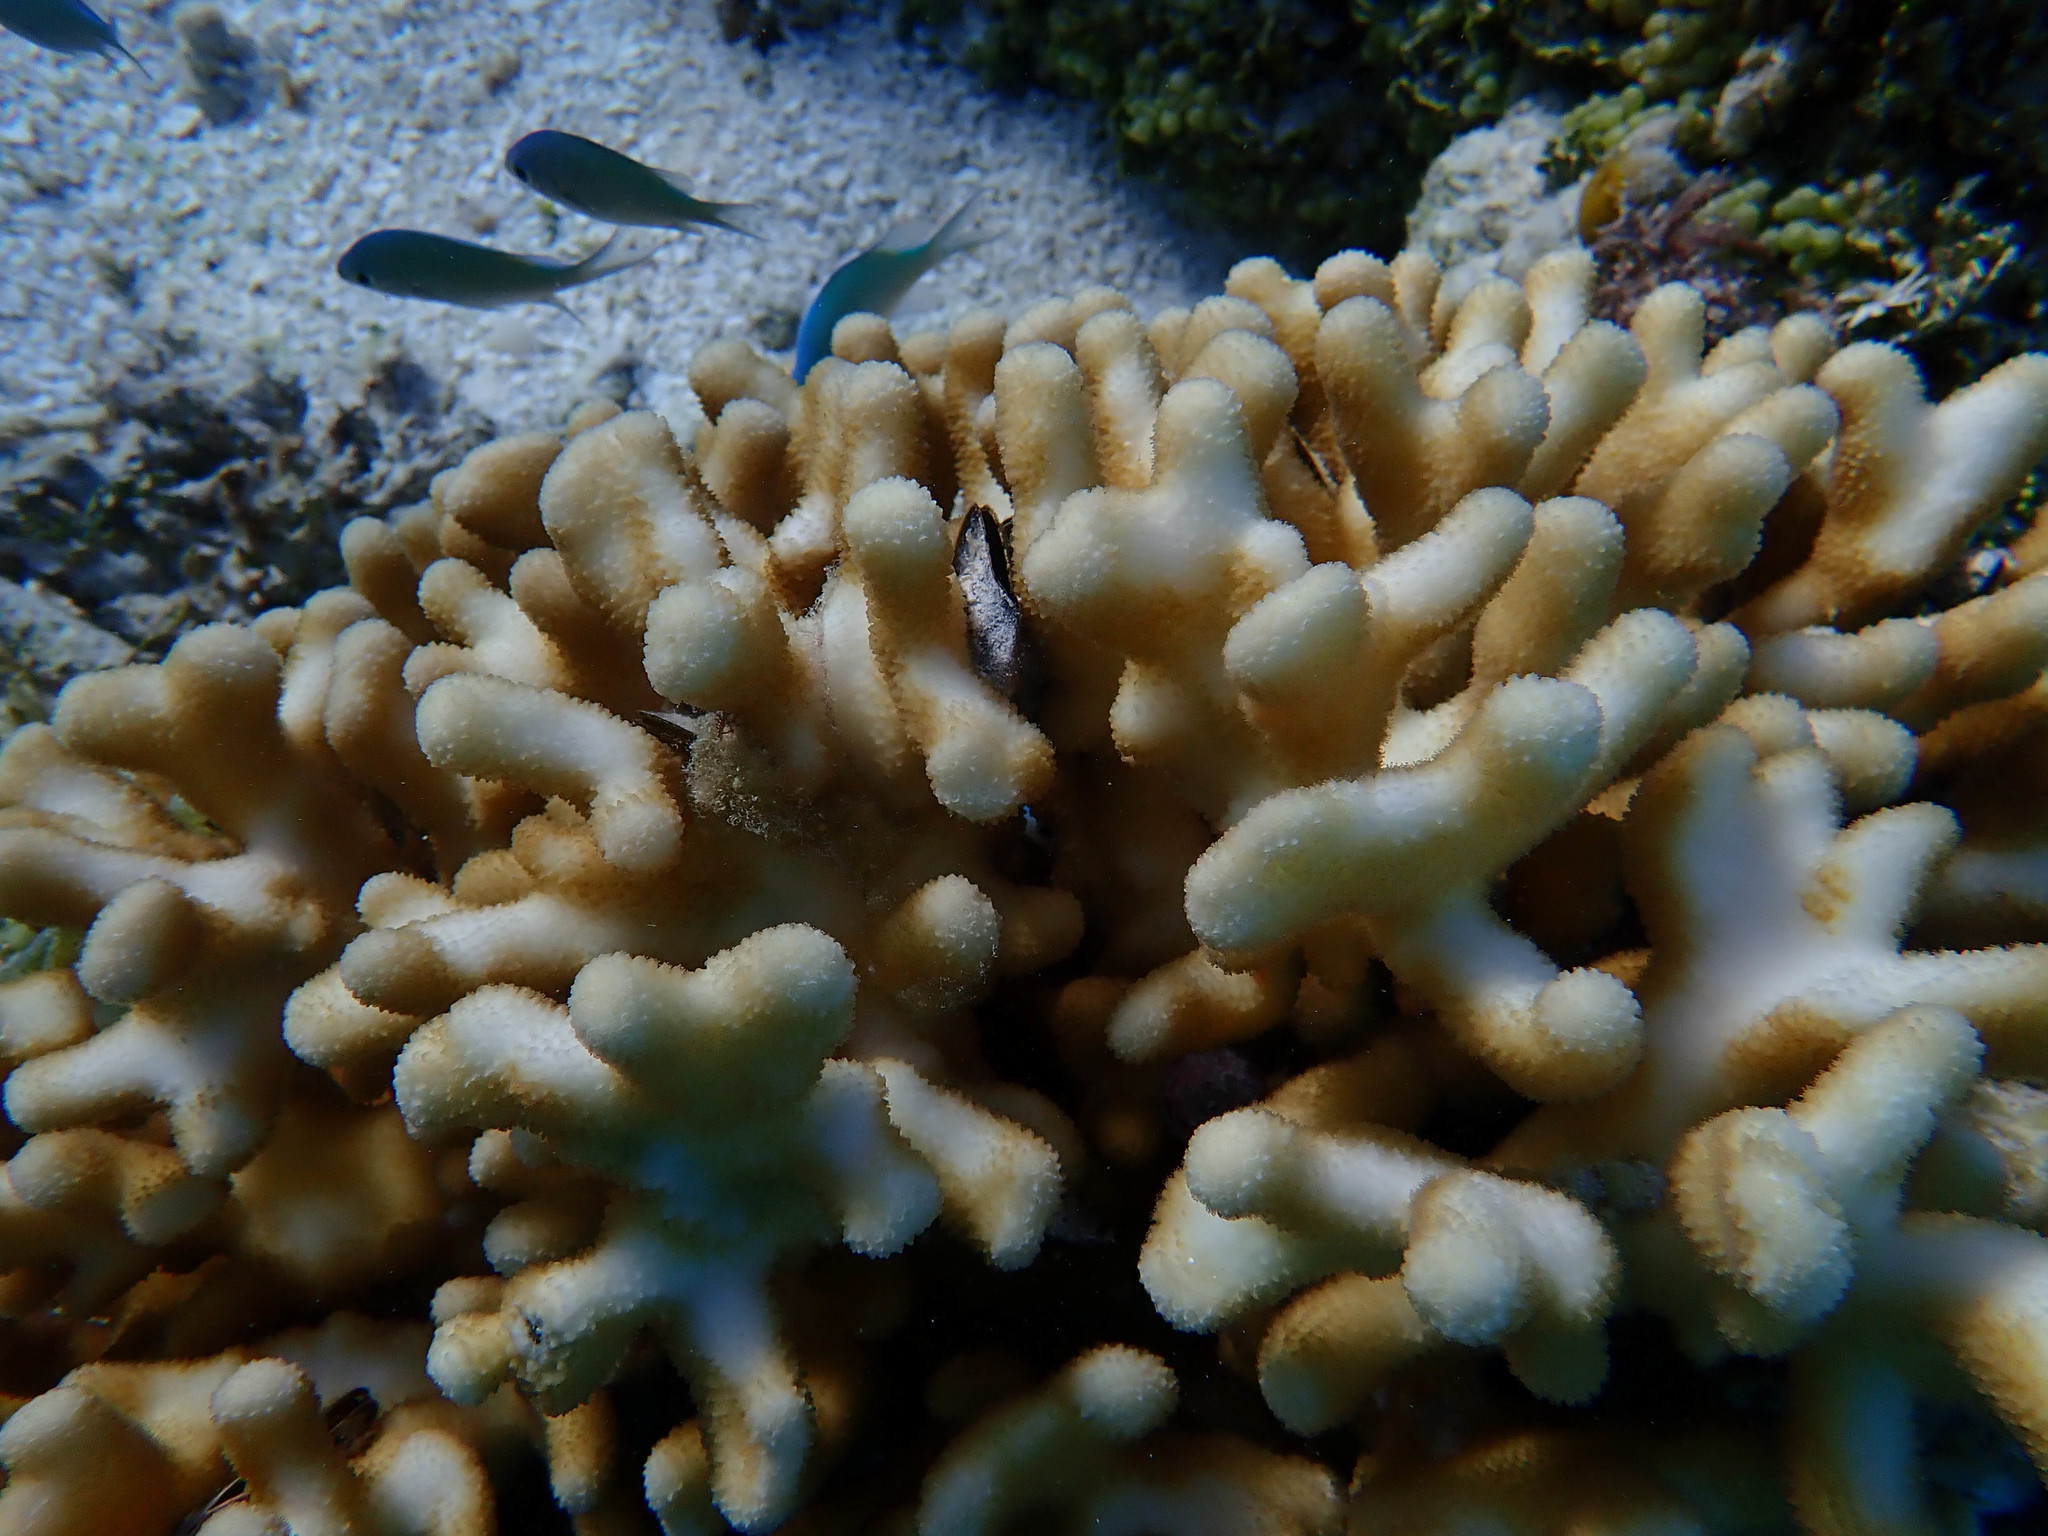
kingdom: Animalia
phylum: Cnidaria
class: Anthozoa
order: Scleractinia
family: Pocilloporidae
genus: Stylophora
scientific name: Stylophora pistillata
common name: Hood coral
